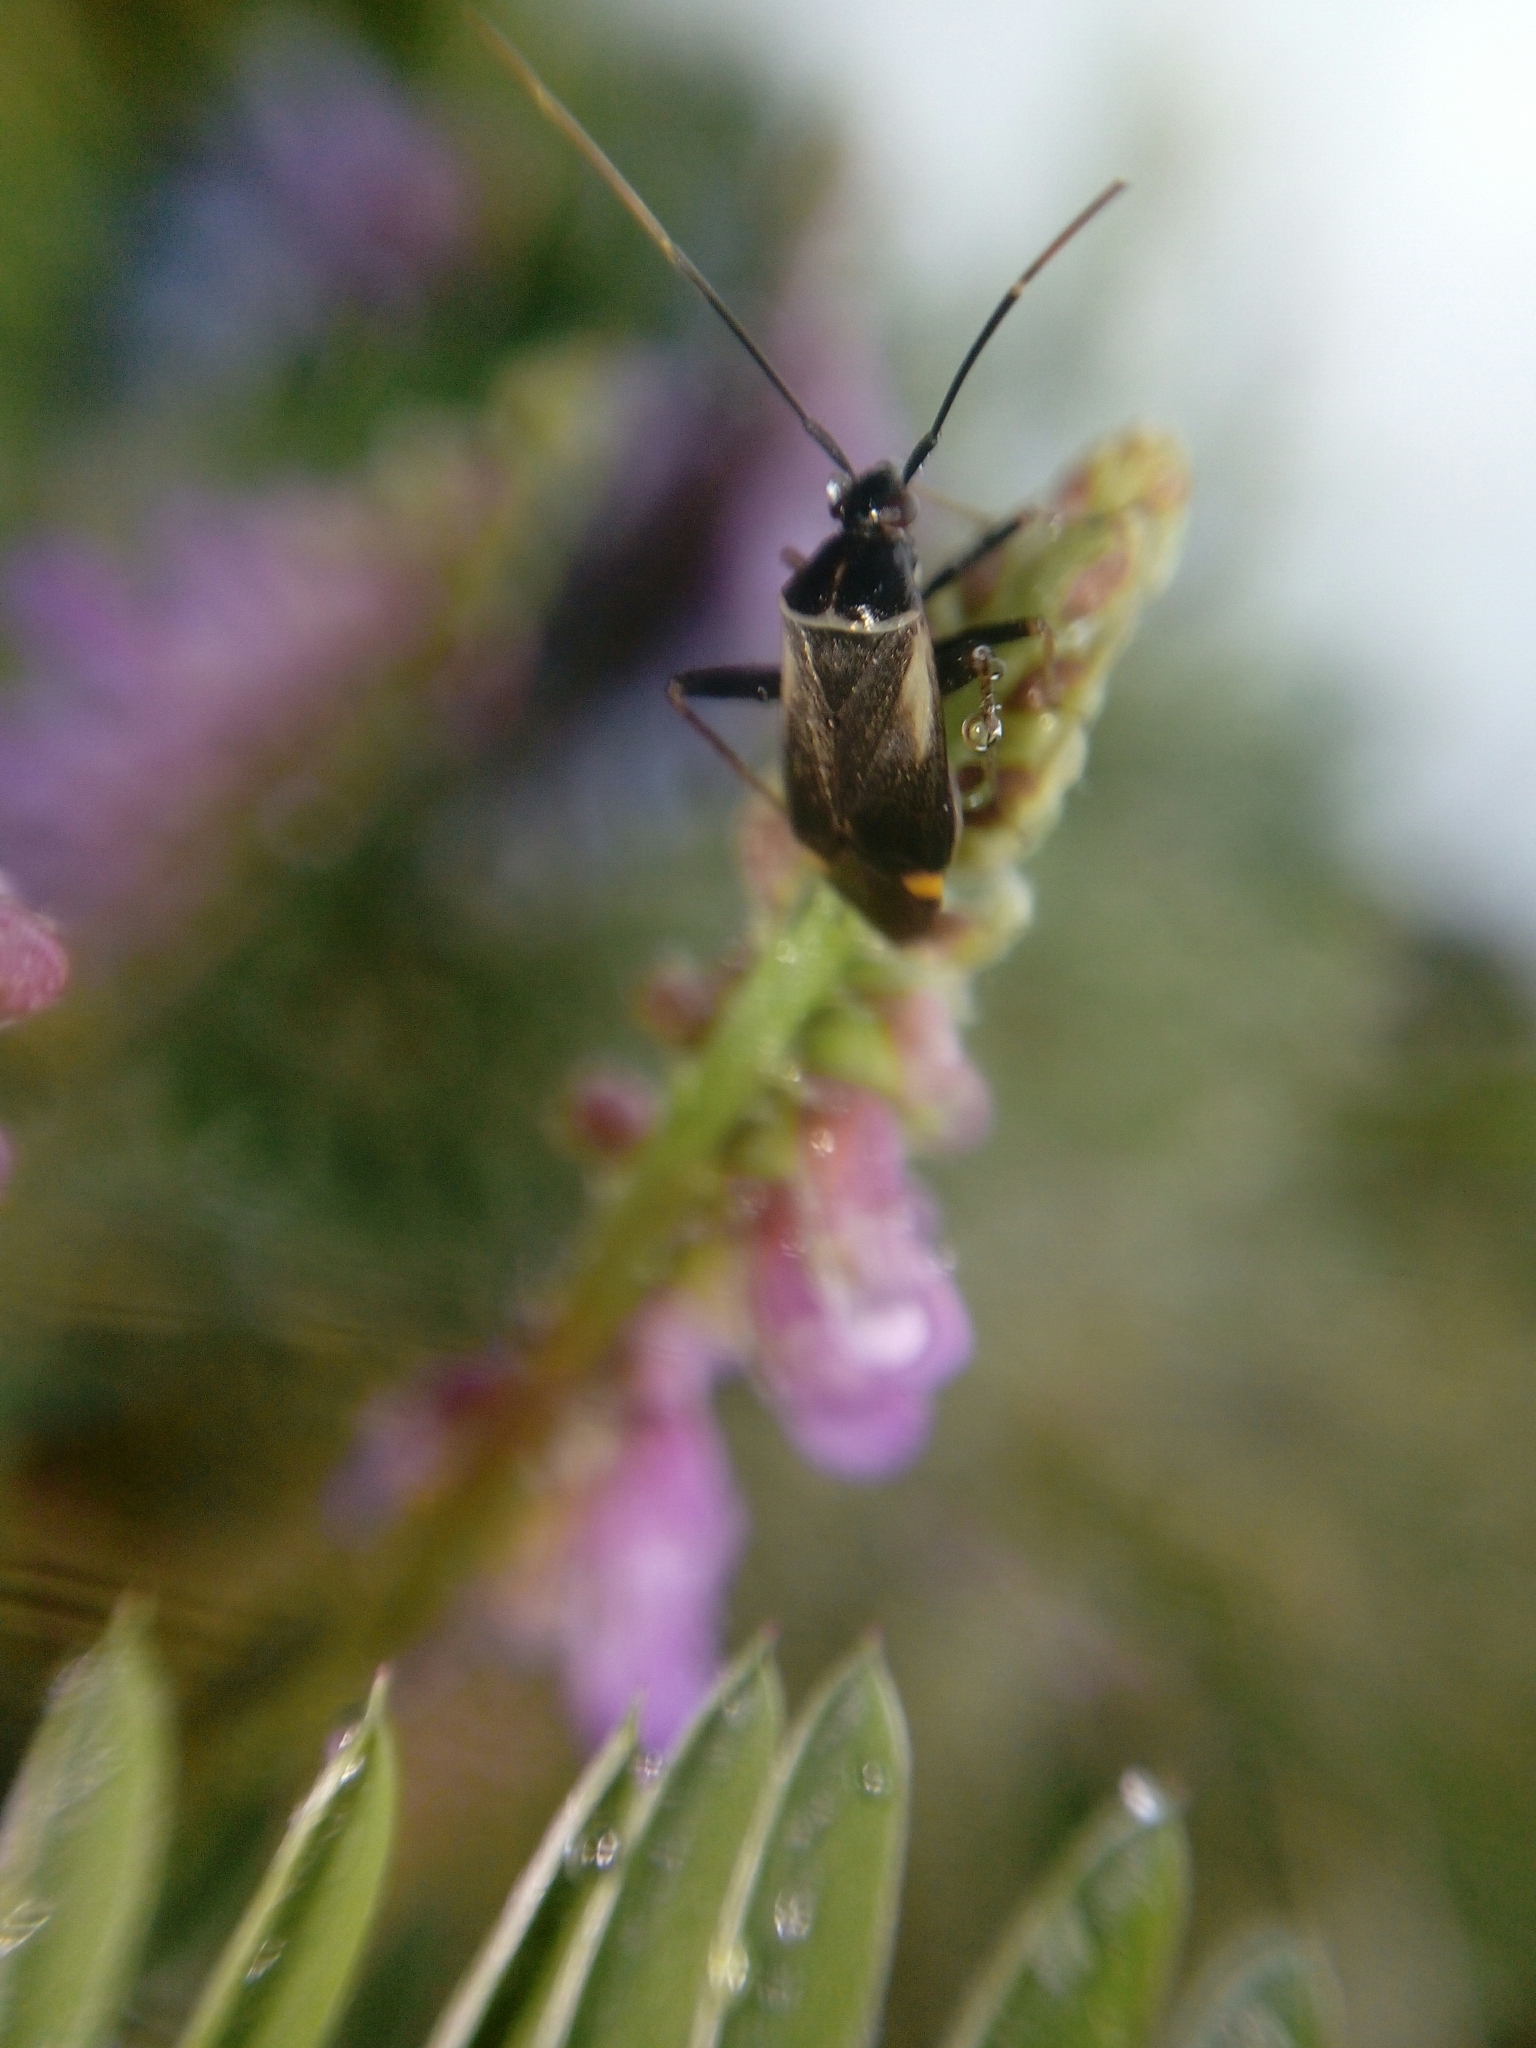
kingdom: Animalia
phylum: Arthropoda
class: Insecta
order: Hemiptera
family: Miridae
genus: Adelphocoris
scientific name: Adelphocoris seticornis
